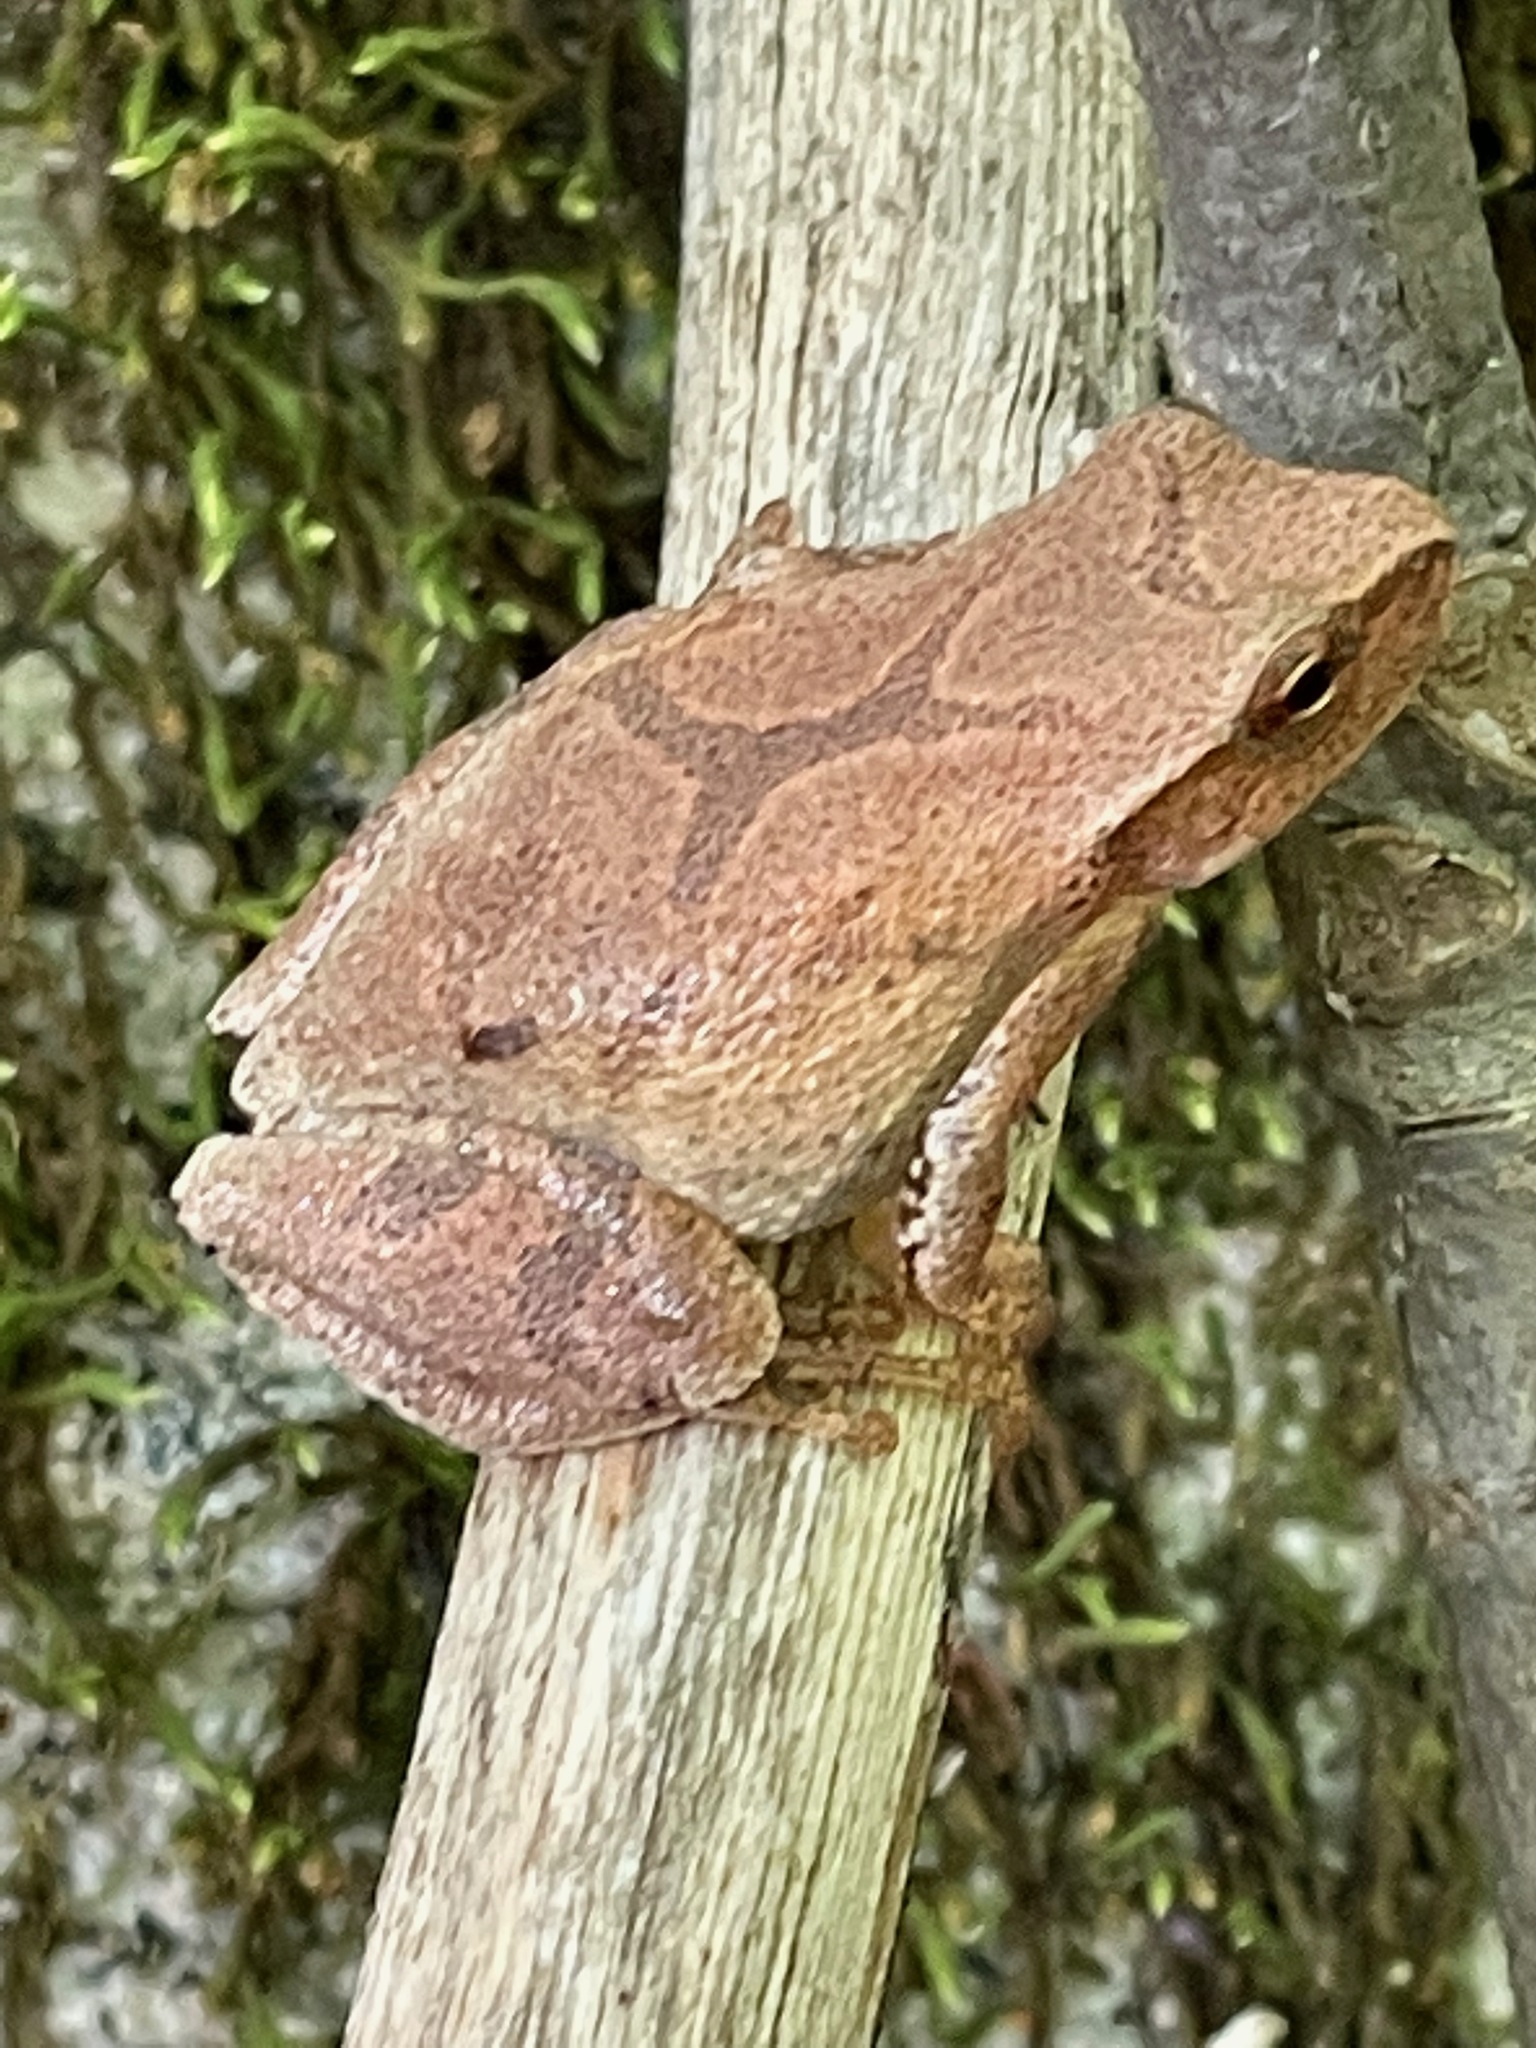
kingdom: Animalia
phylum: Chordata
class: Amphibia
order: Anura
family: Hylidae
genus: Pseudacris
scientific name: Pseudacris crucifer
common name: Spring peeper
